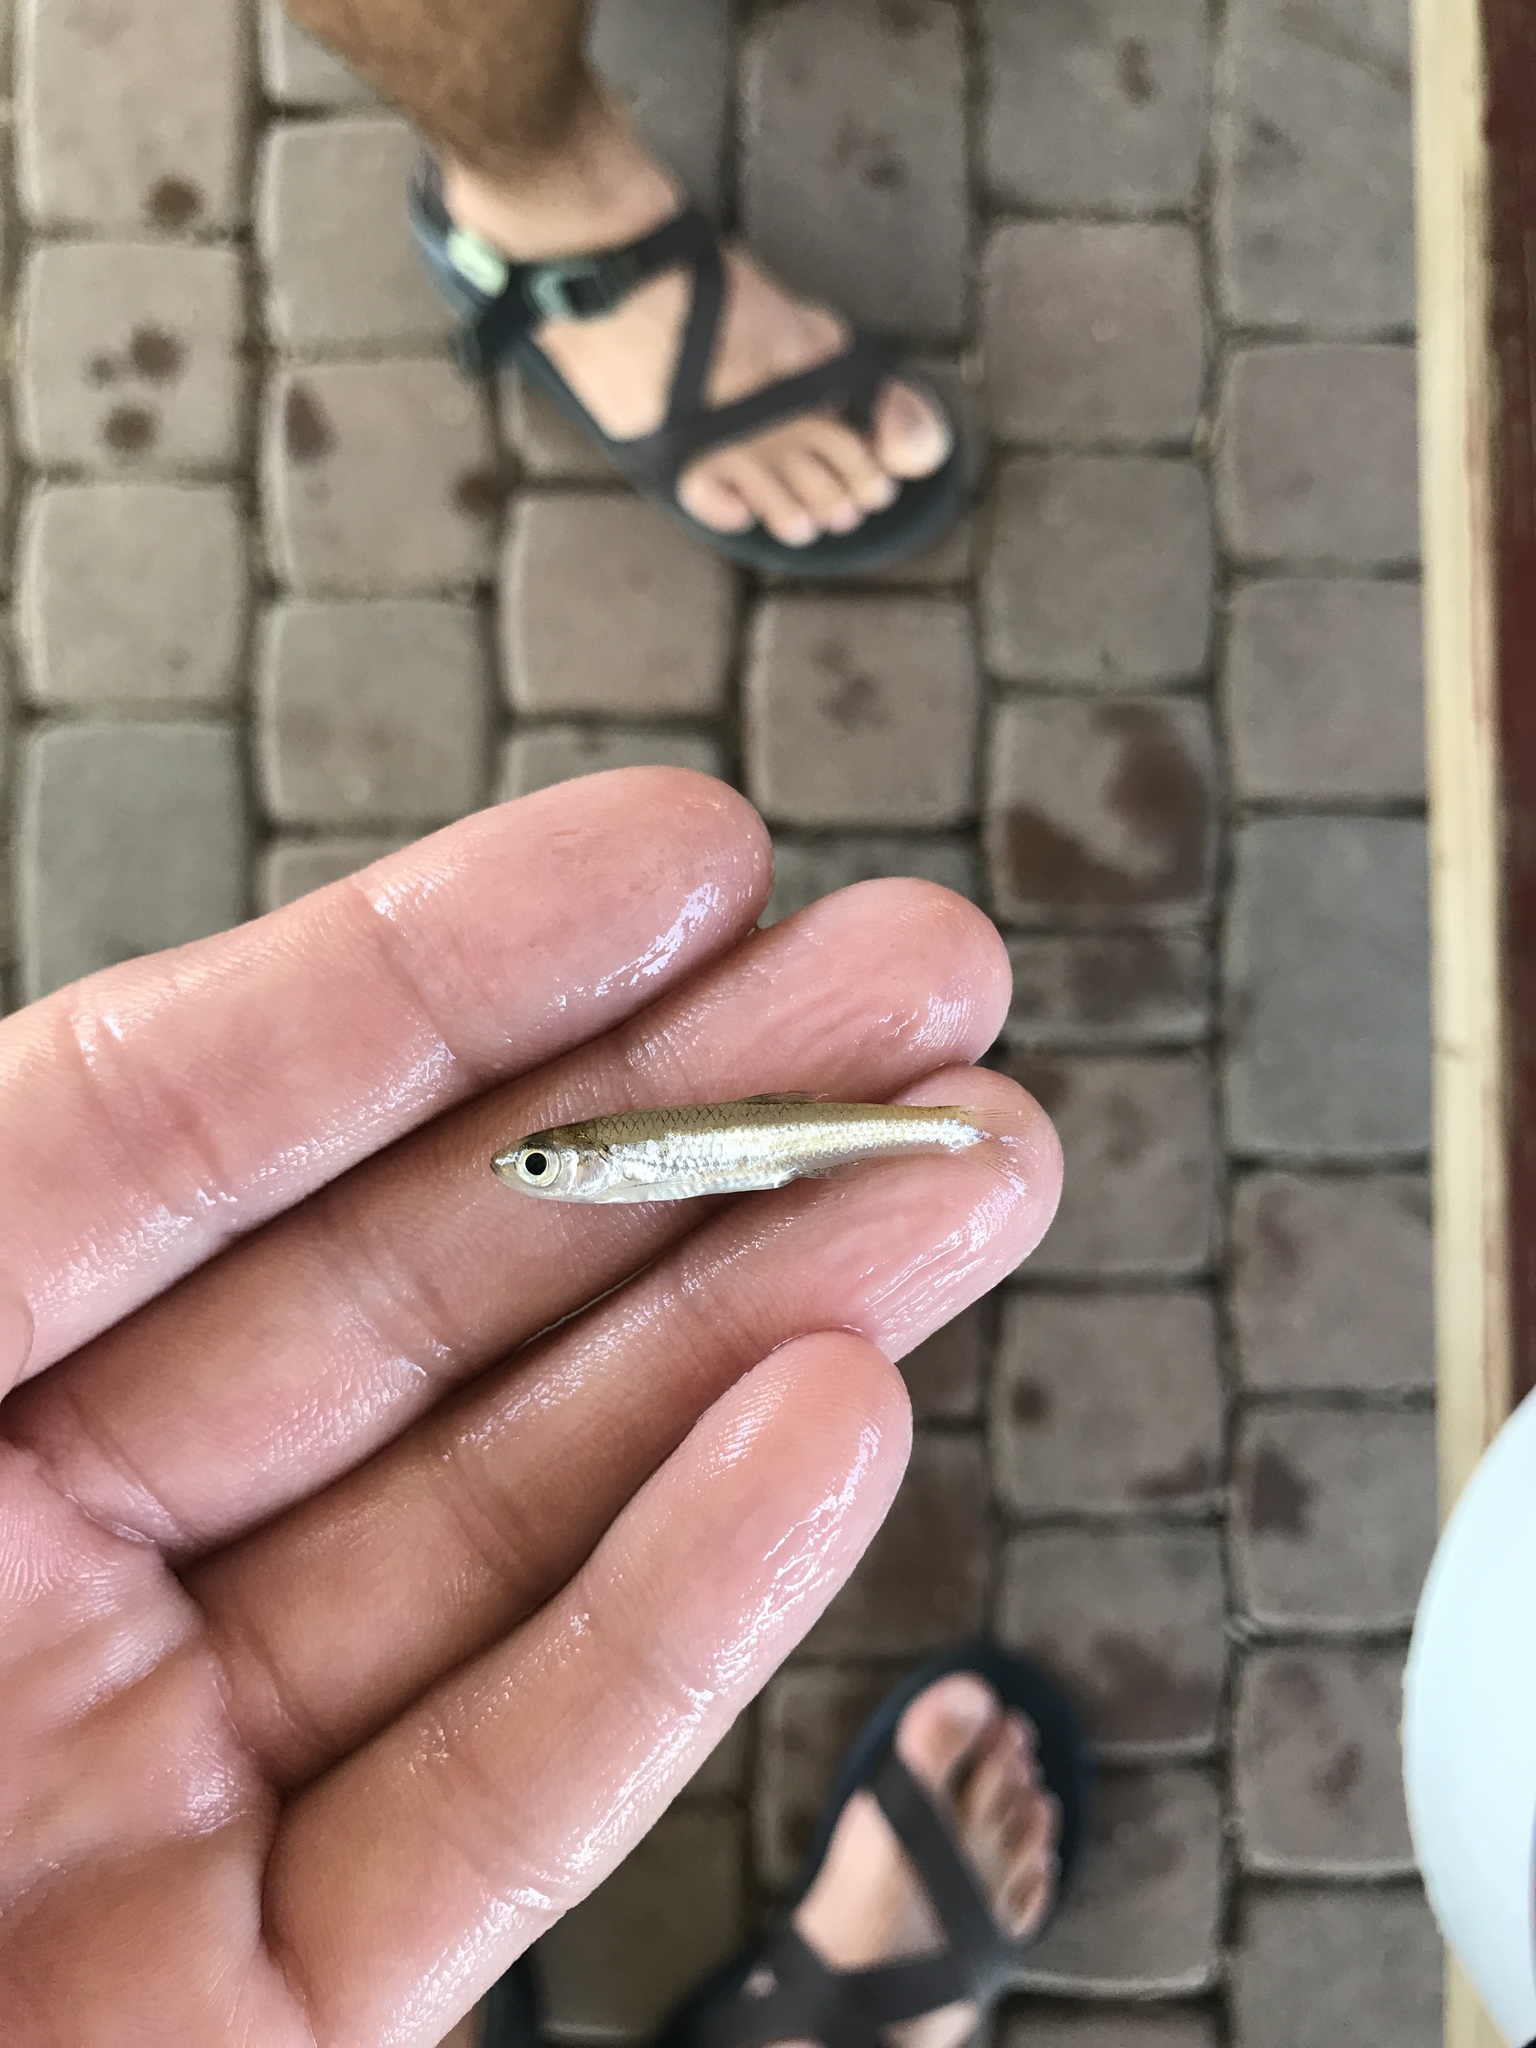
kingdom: Animalia
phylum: Chordata
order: Cypriniformes
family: Cyprinidae
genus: Notropis
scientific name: Notropis amabilis
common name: Texas shiner
